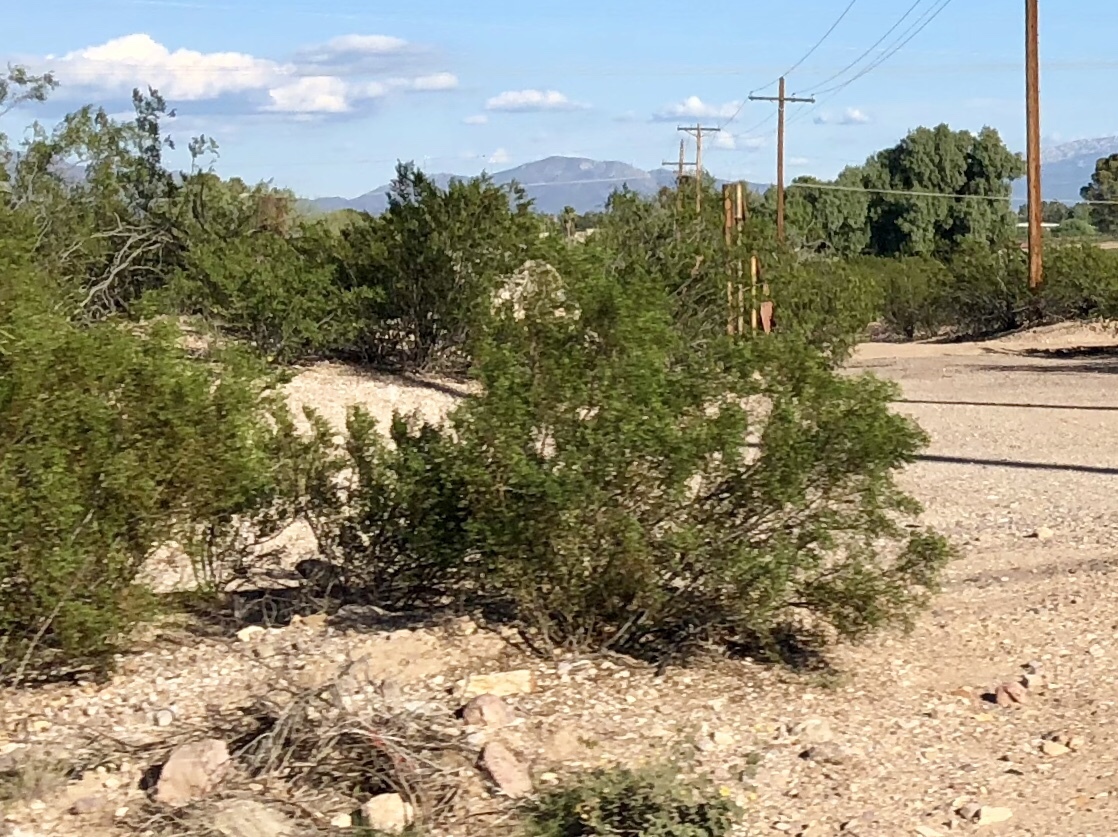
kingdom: Plantae
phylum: Tracheophyta
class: Magnoliopsida
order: Zygophyllales
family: Zygophyllaceae
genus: Larrea
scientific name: Larrea tridentata
